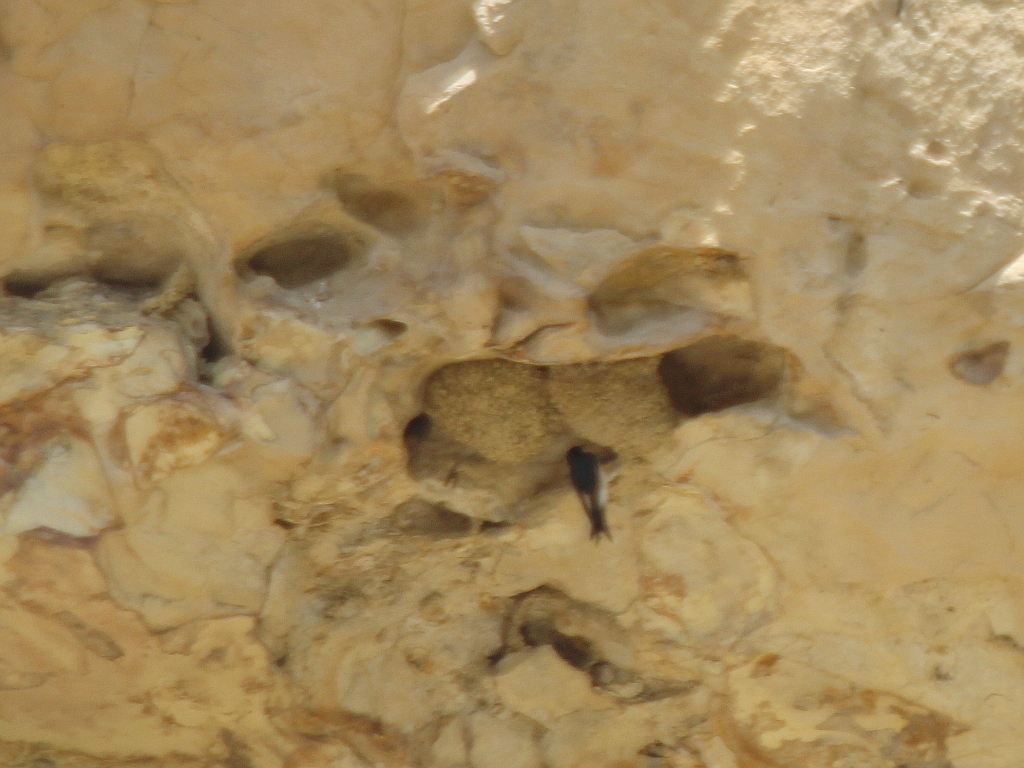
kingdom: Animalia
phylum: Chordata
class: Aves
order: Passeriformes
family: Hirundinidae
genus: Delichon
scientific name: Delichon urbicum
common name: Common house martin
